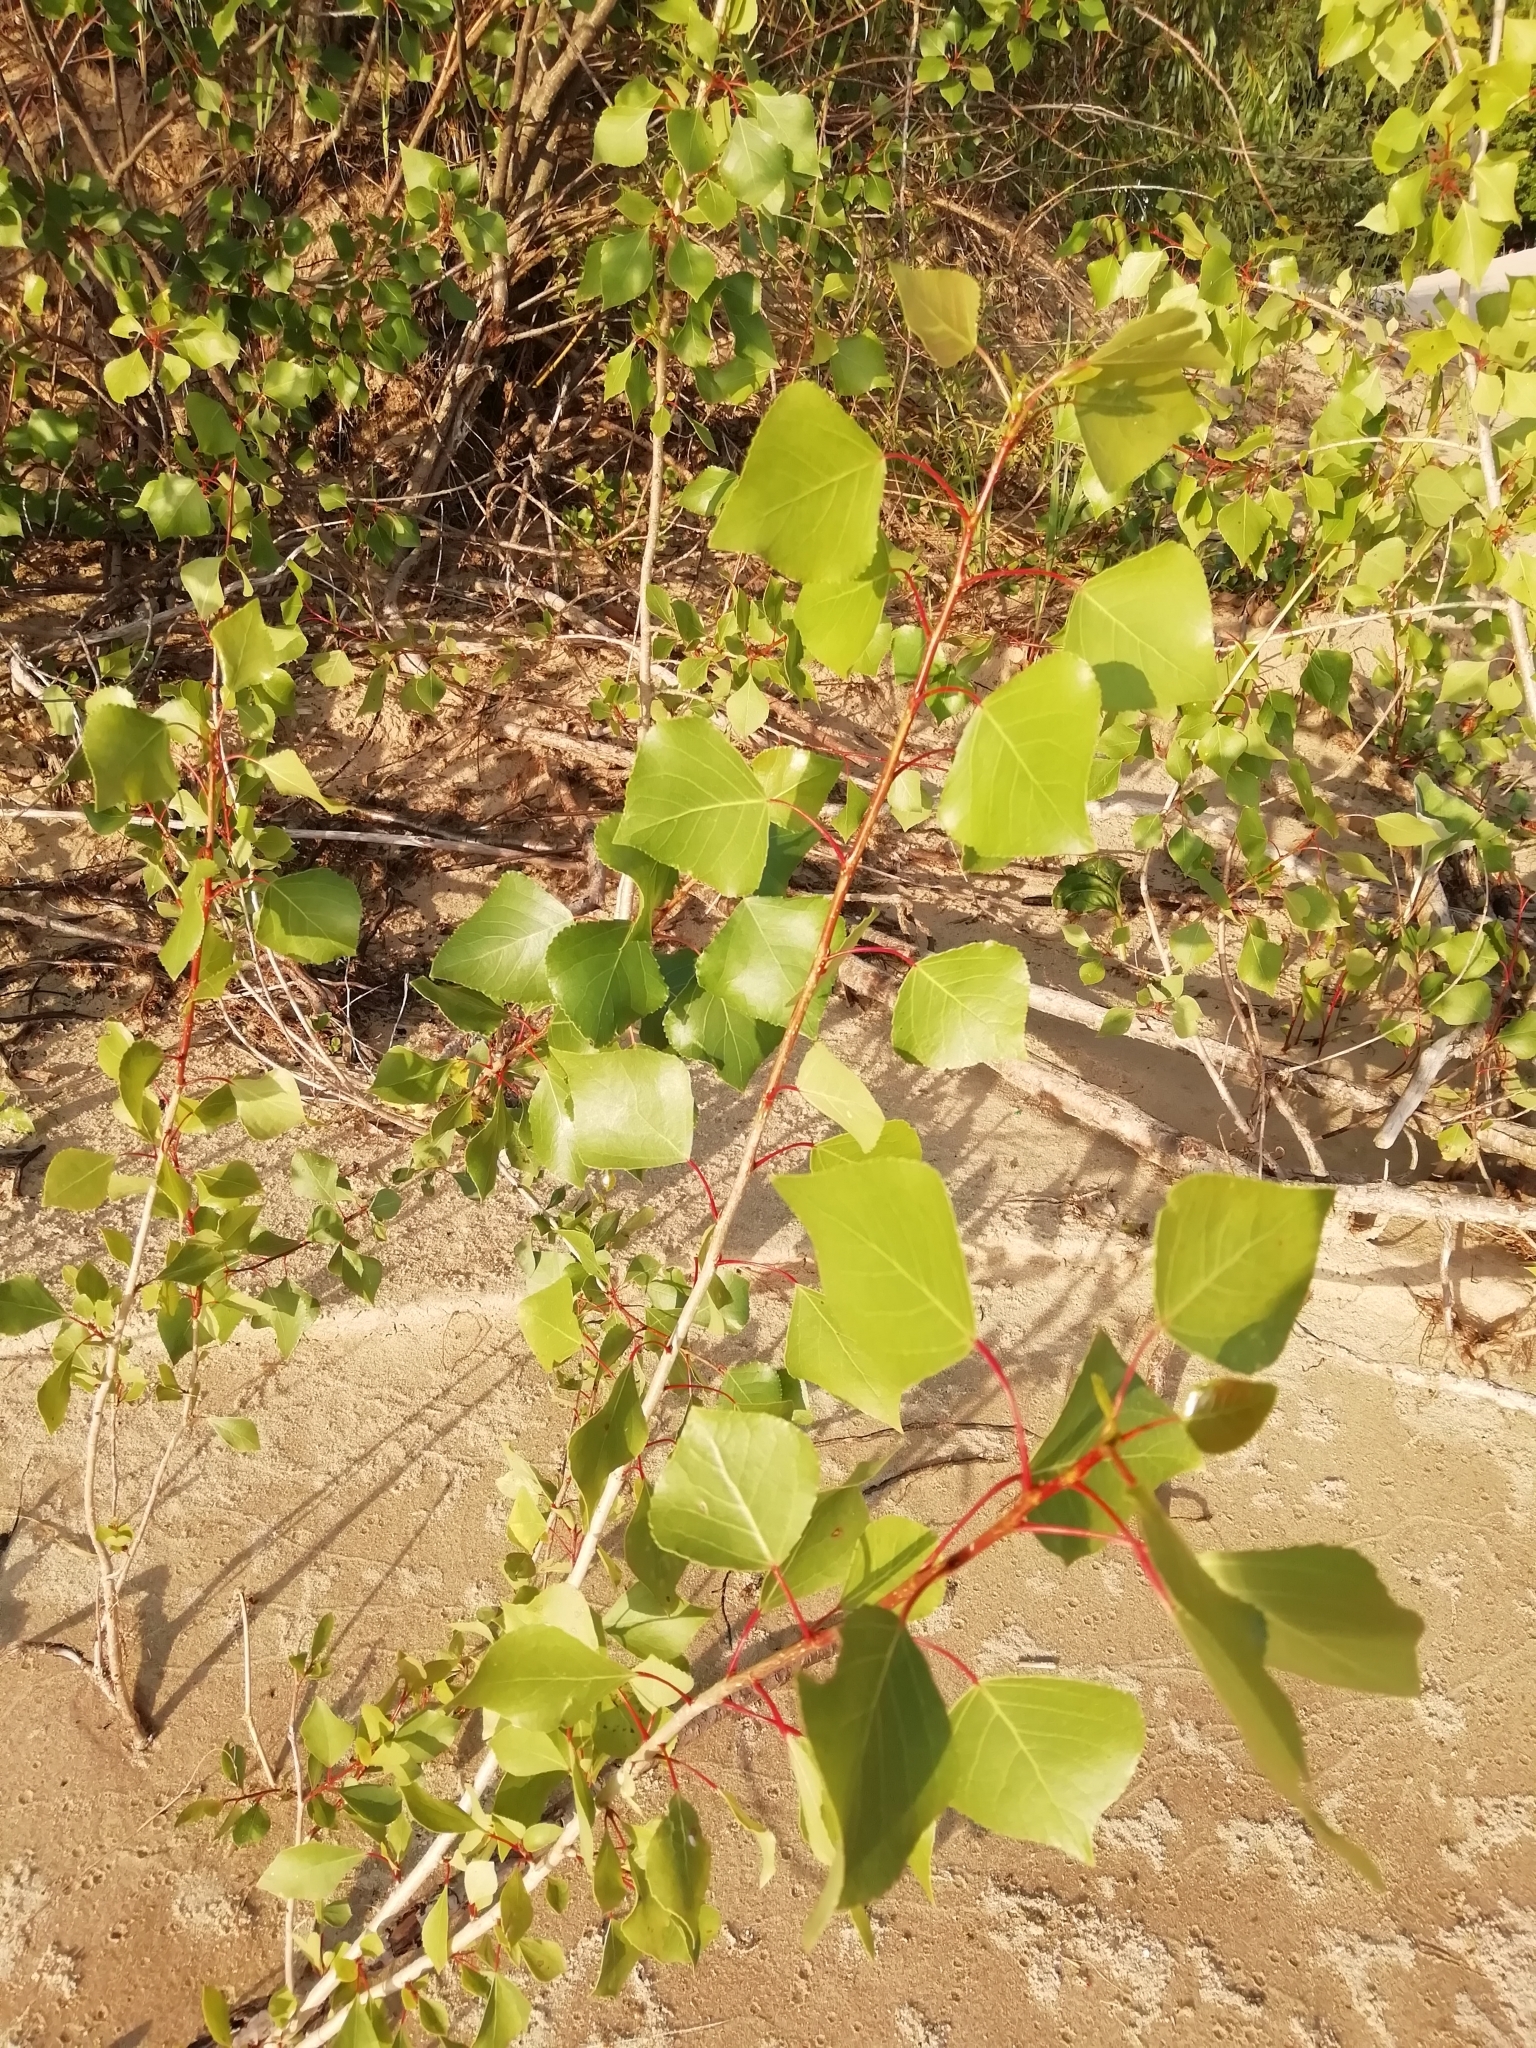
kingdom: Plantae
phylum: Tracheophyta
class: Magnoliopsida
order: Malpighiales
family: Salicaceae
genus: Populus
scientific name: Populus nigra
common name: Black poplar
